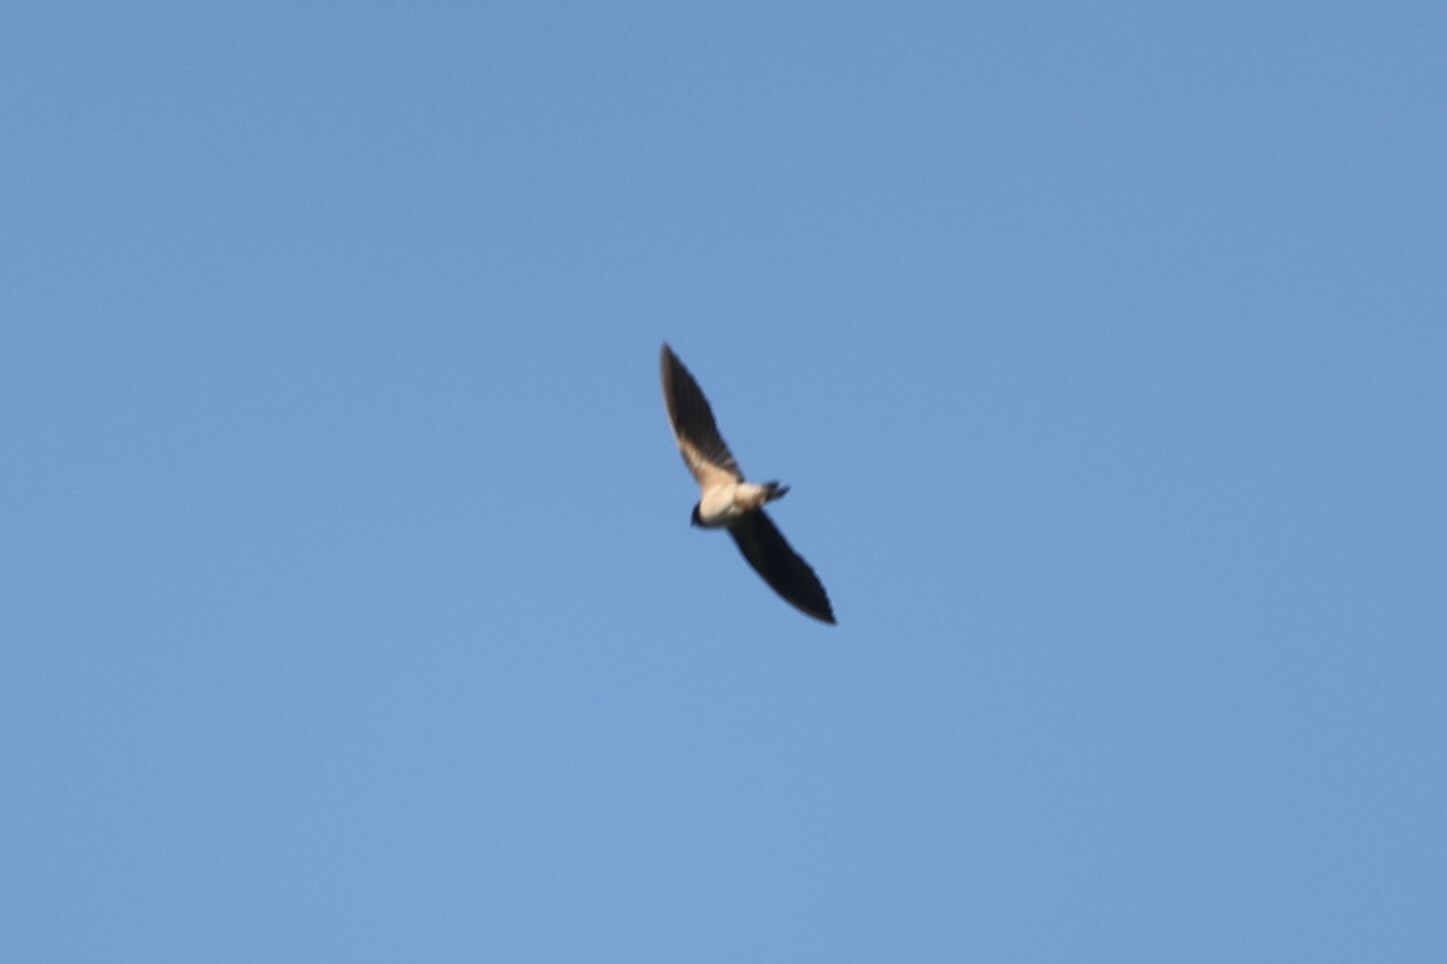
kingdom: Animalia
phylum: Chordata
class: Aves
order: Passeriformes
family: Hirundinidae
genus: Hirundo
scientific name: Hirundo rustica
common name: Barn swallow
